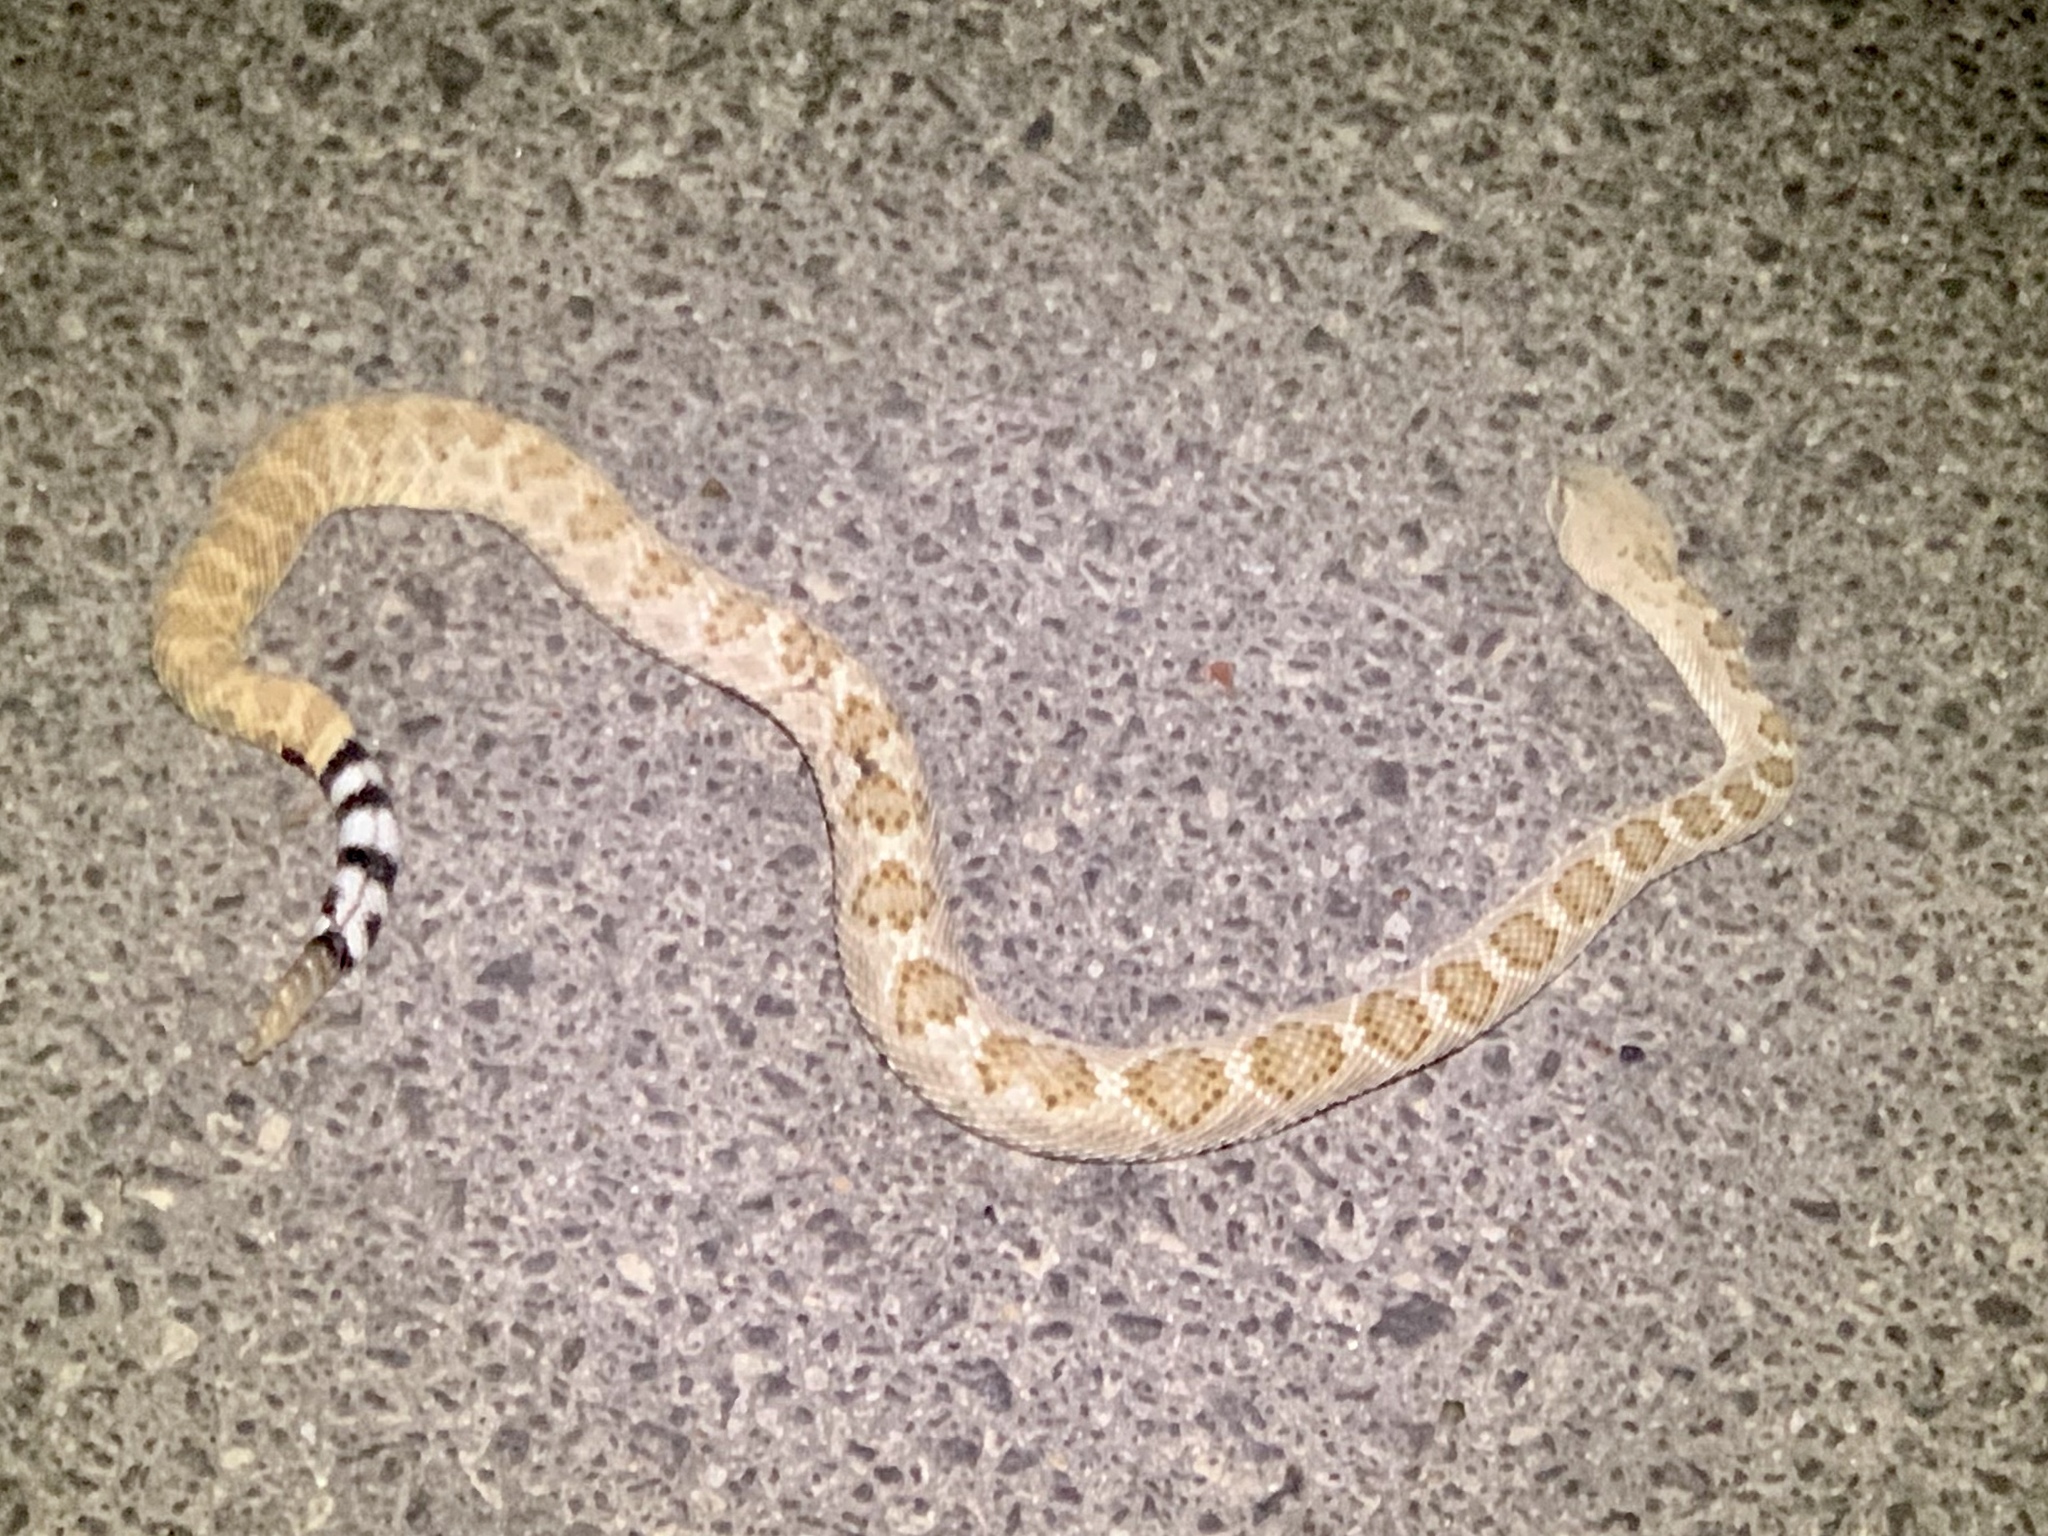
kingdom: Animalia
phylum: Chordata
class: Squamata
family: Viperidae
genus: Crotalus
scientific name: Crotalus atrox
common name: Western diamond-backed rattlesnake
